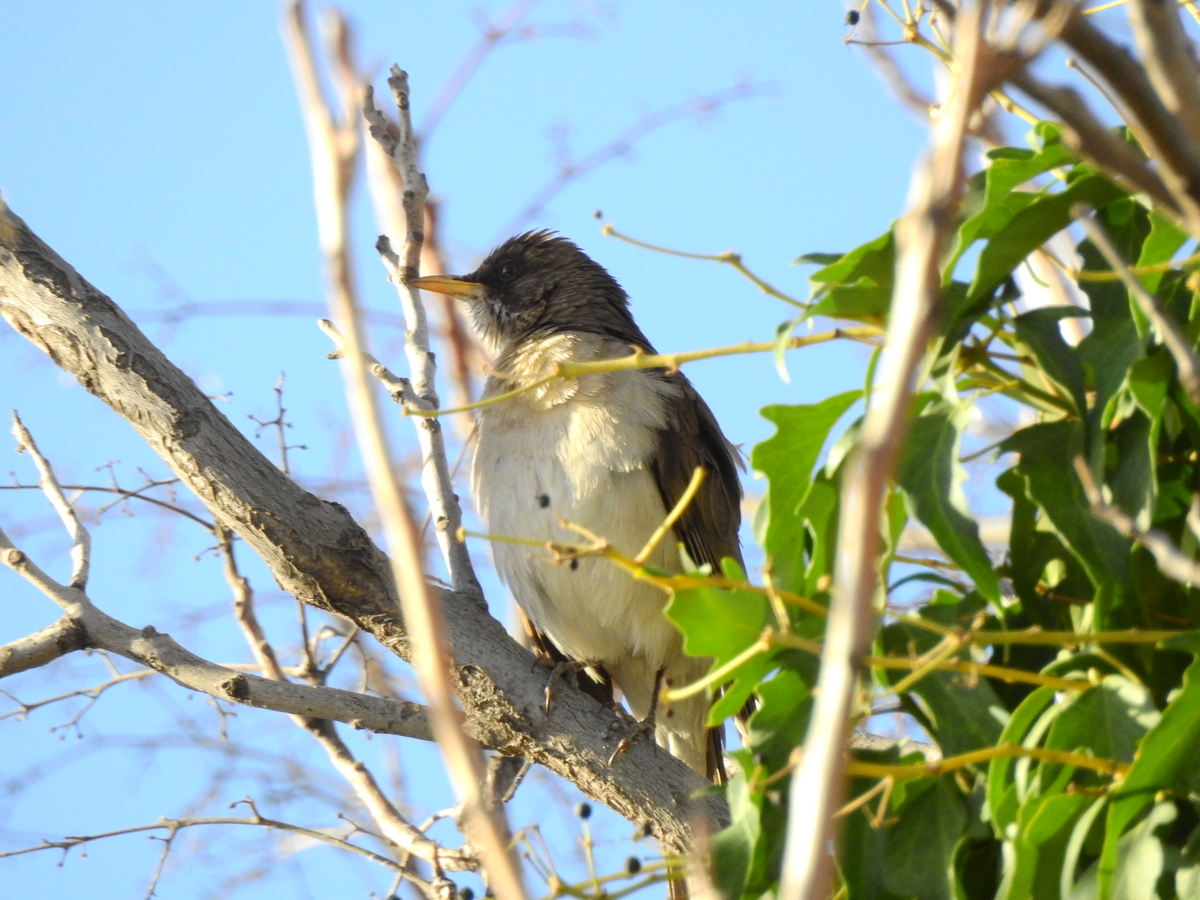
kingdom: Animalia
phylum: Chordata
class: Aves
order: Passeriformes
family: Turdidae
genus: Turdus
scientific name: Turdus amaurochalinus
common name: Creamy-bellied thrush
